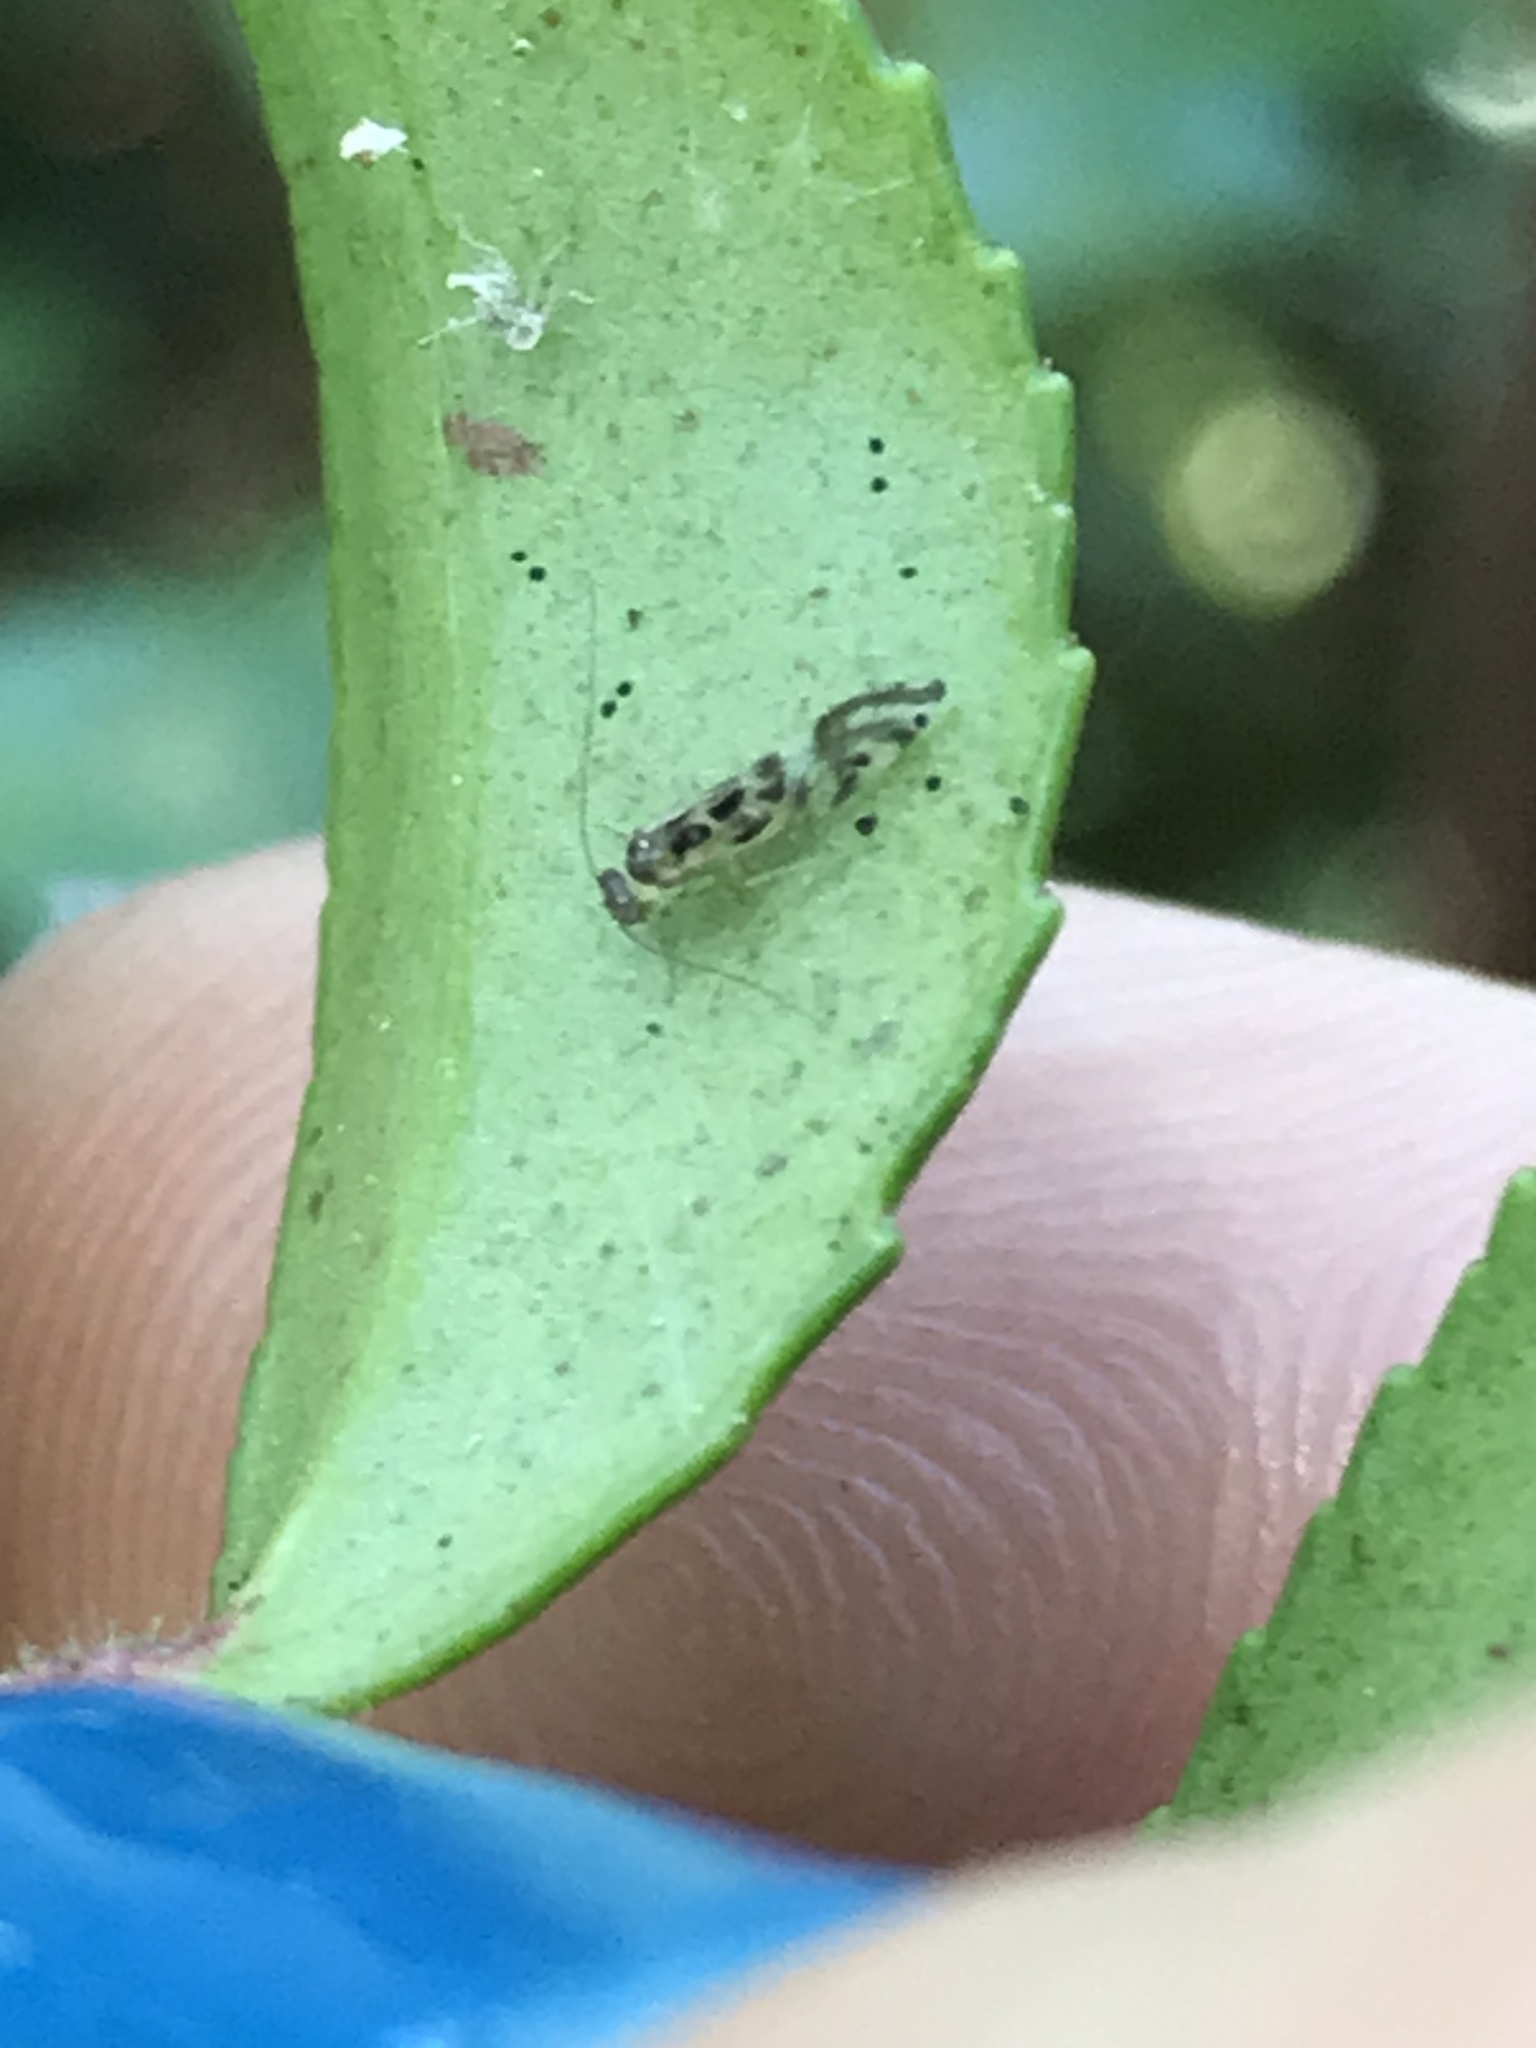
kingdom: Animalia
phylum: Arthropoda
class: Insecta
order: Psocodea
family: Stenopsocidae
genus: Graphopsocus
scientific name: Graphopsocus cruciatus
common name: Lizard bark louse
